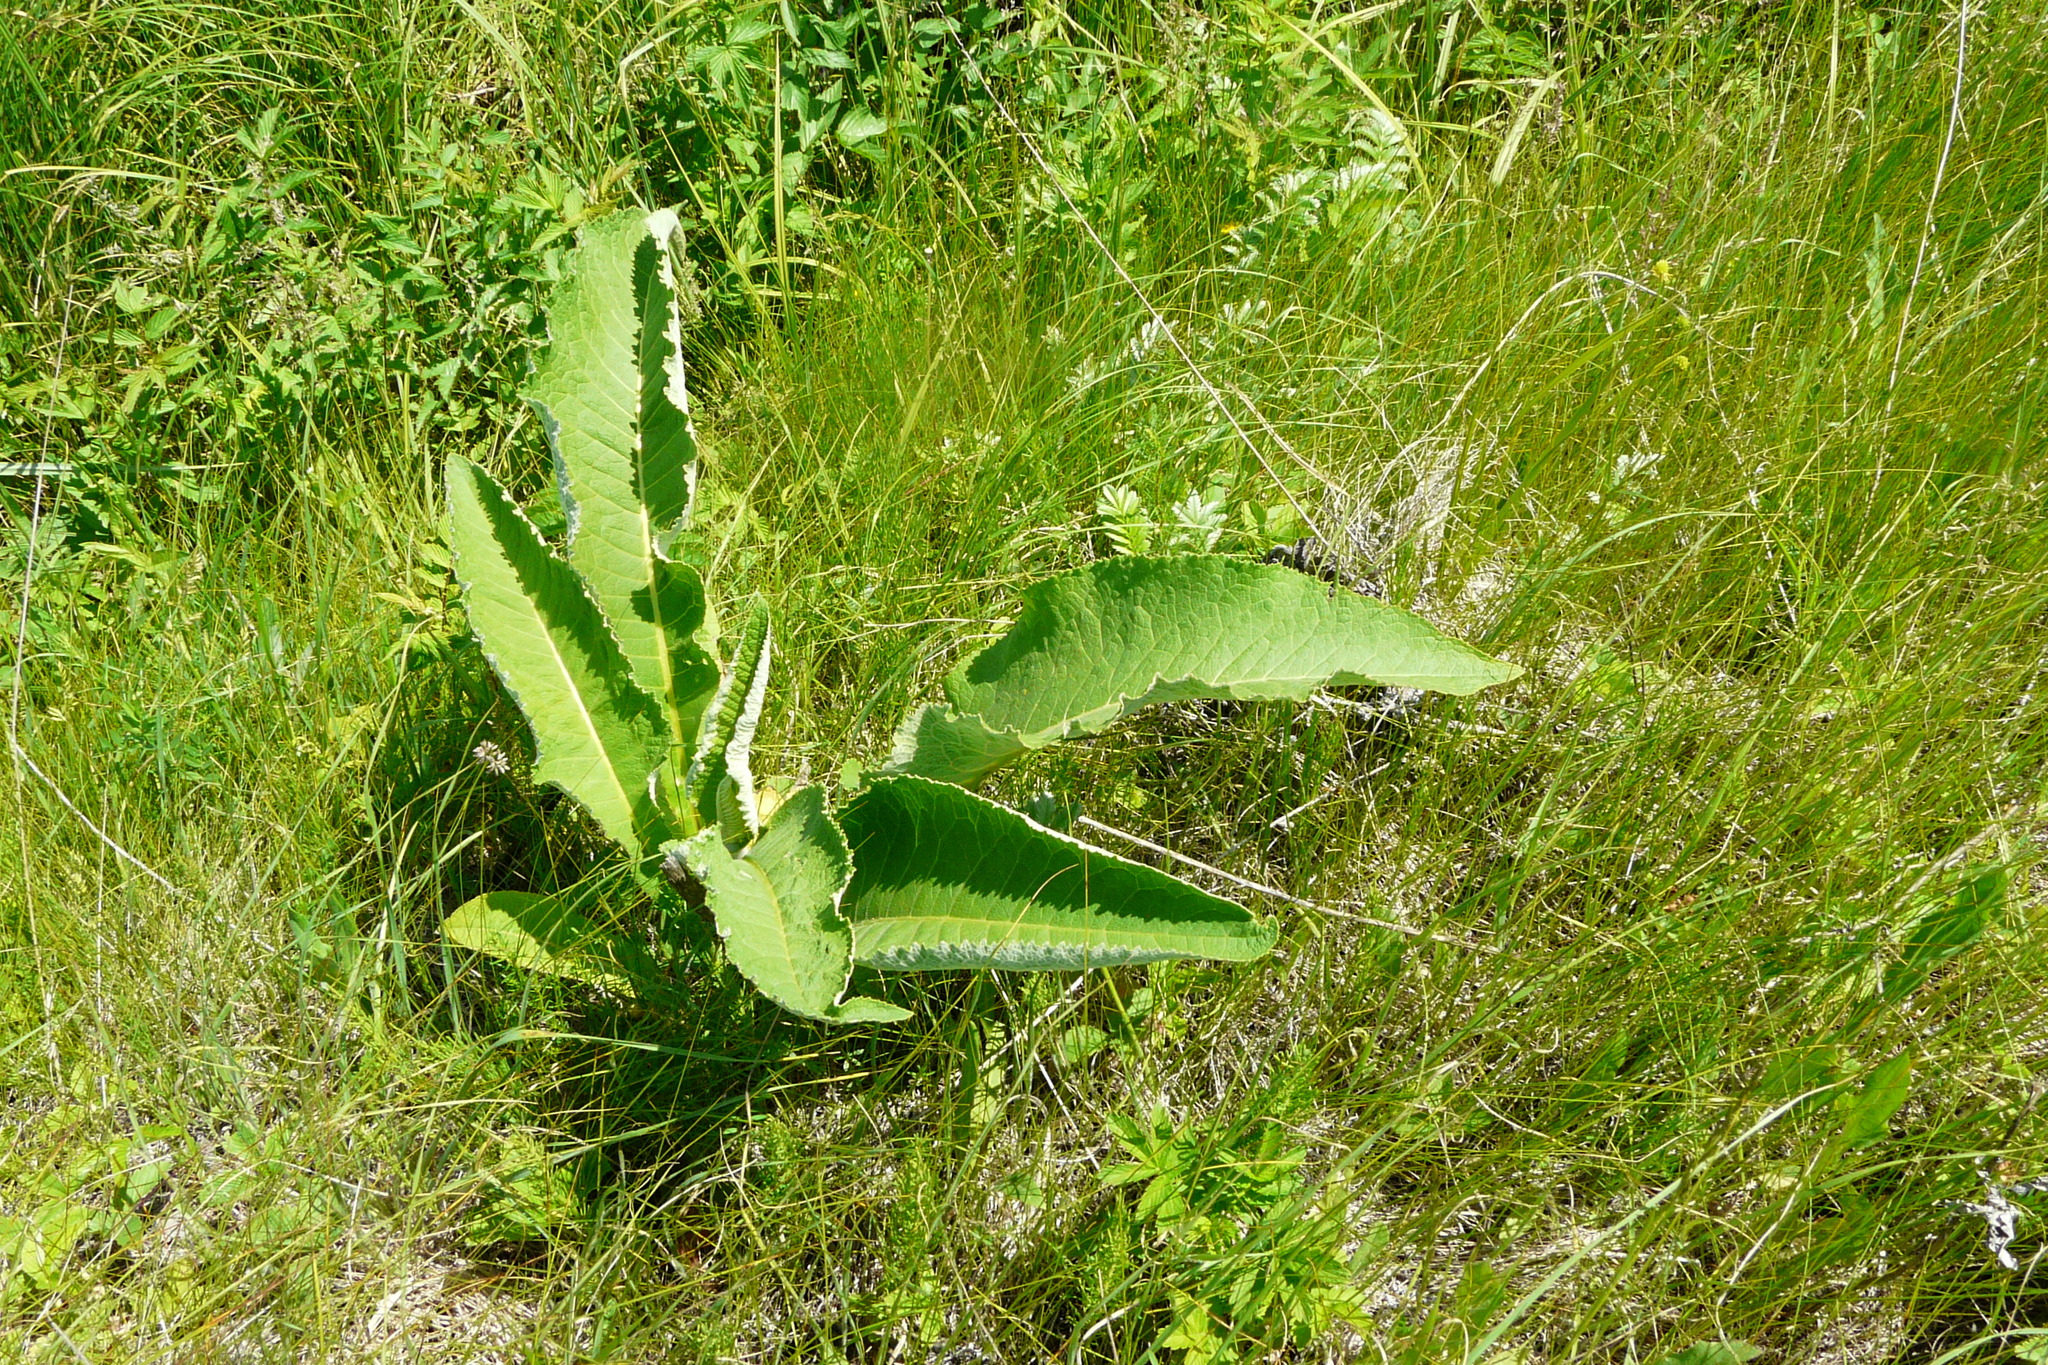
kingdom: Plantae
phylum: Tracheophyta
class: Magnoliopsida
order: Asterales
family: Asteraceae
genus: Inula
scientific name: Inula helenium
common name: Elecampane
